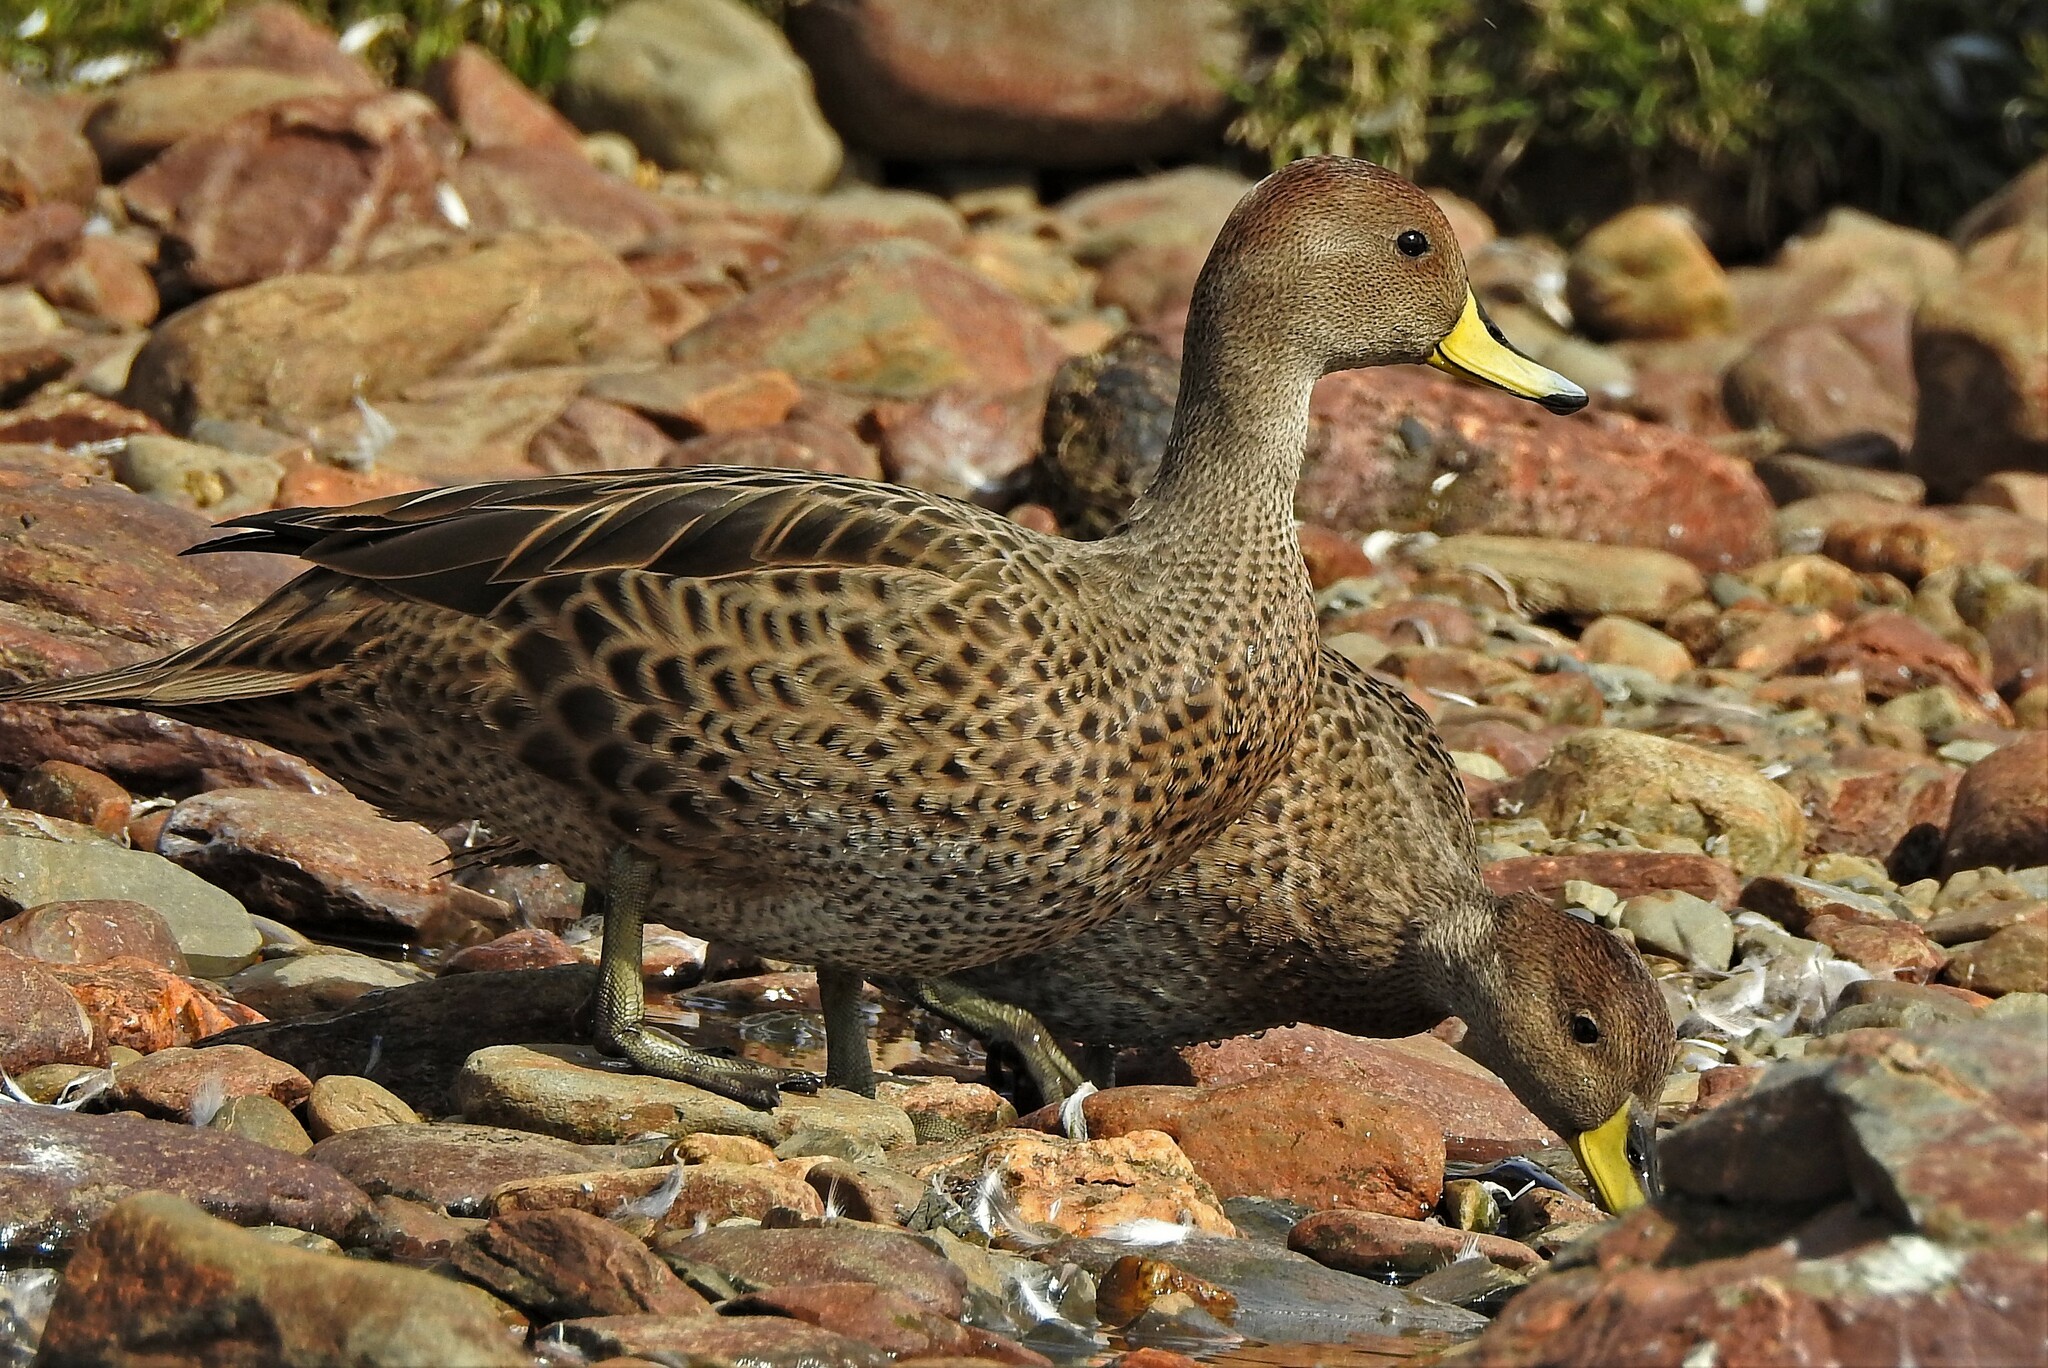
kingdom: Animalia
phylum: Chordata
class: Aves
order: Anseriformes
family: Anatidae
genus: Anas
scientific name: Anas georgica
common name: Yellow-billed pintail
